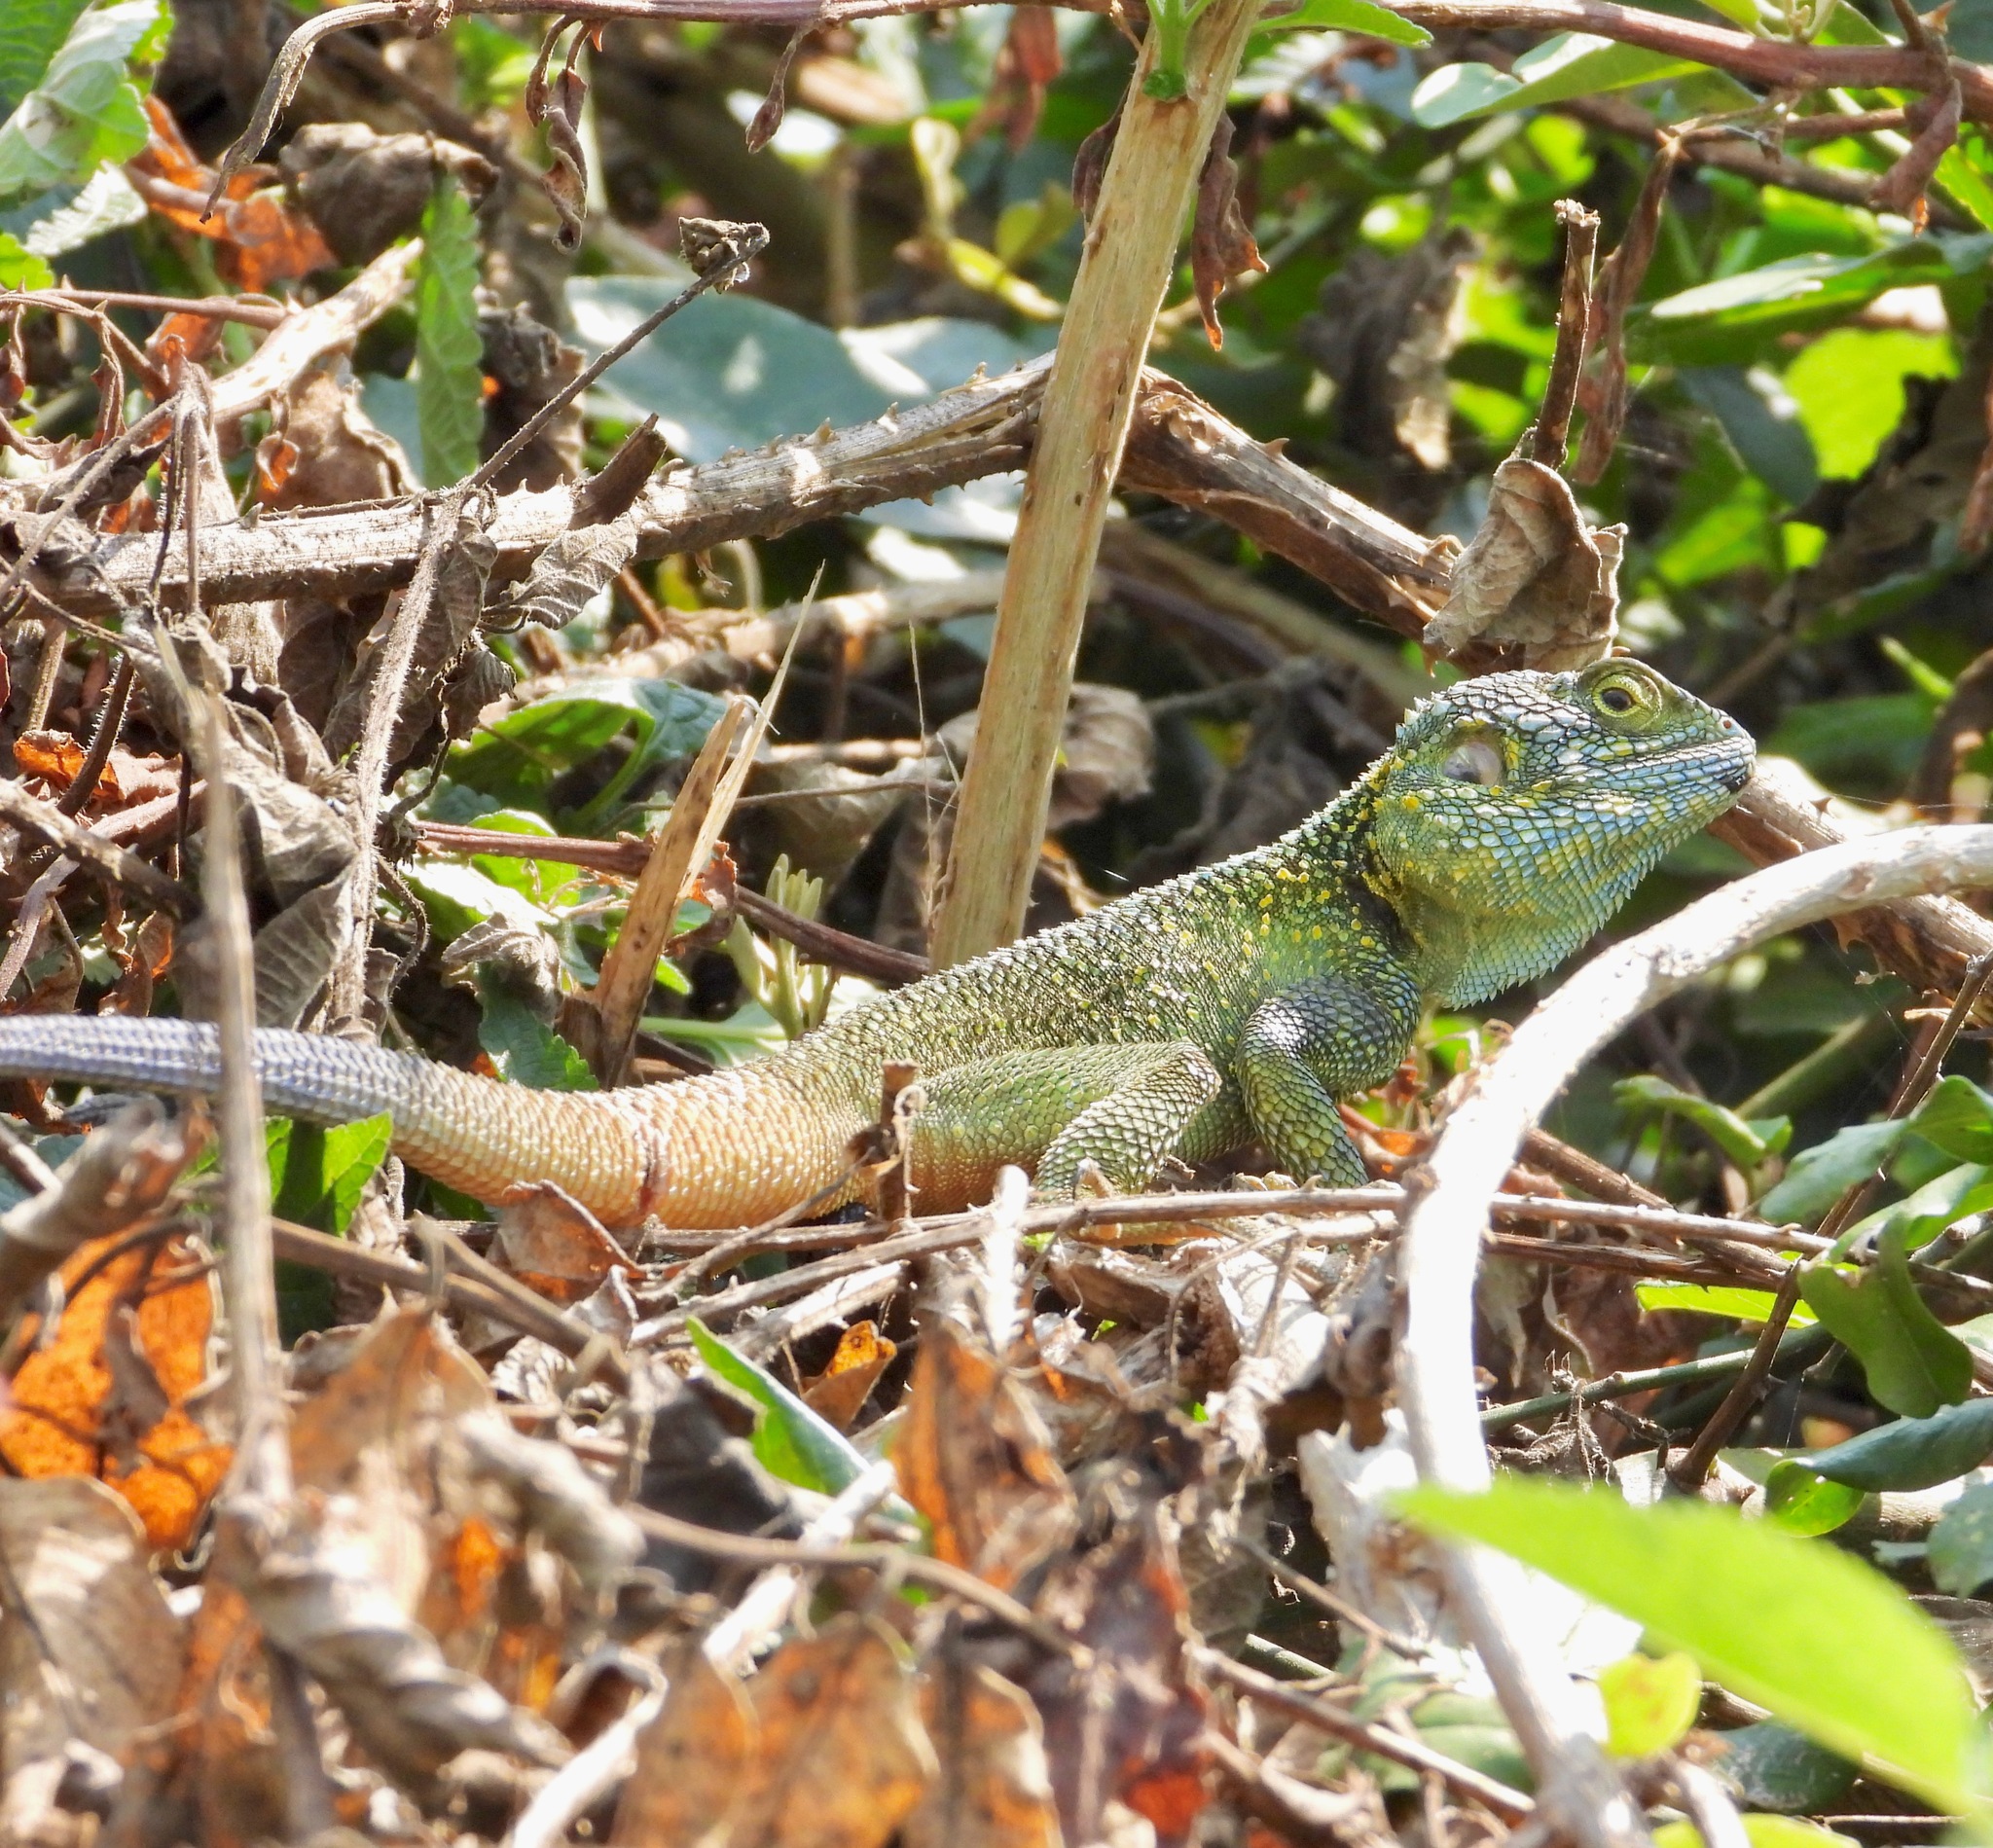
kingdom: Animalia
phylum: Chordata
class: Squamata
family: Agamidae
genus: Acanthocercus
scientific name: Acanthocercus ugandaensis
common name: Uganda blue-headed tree agama
